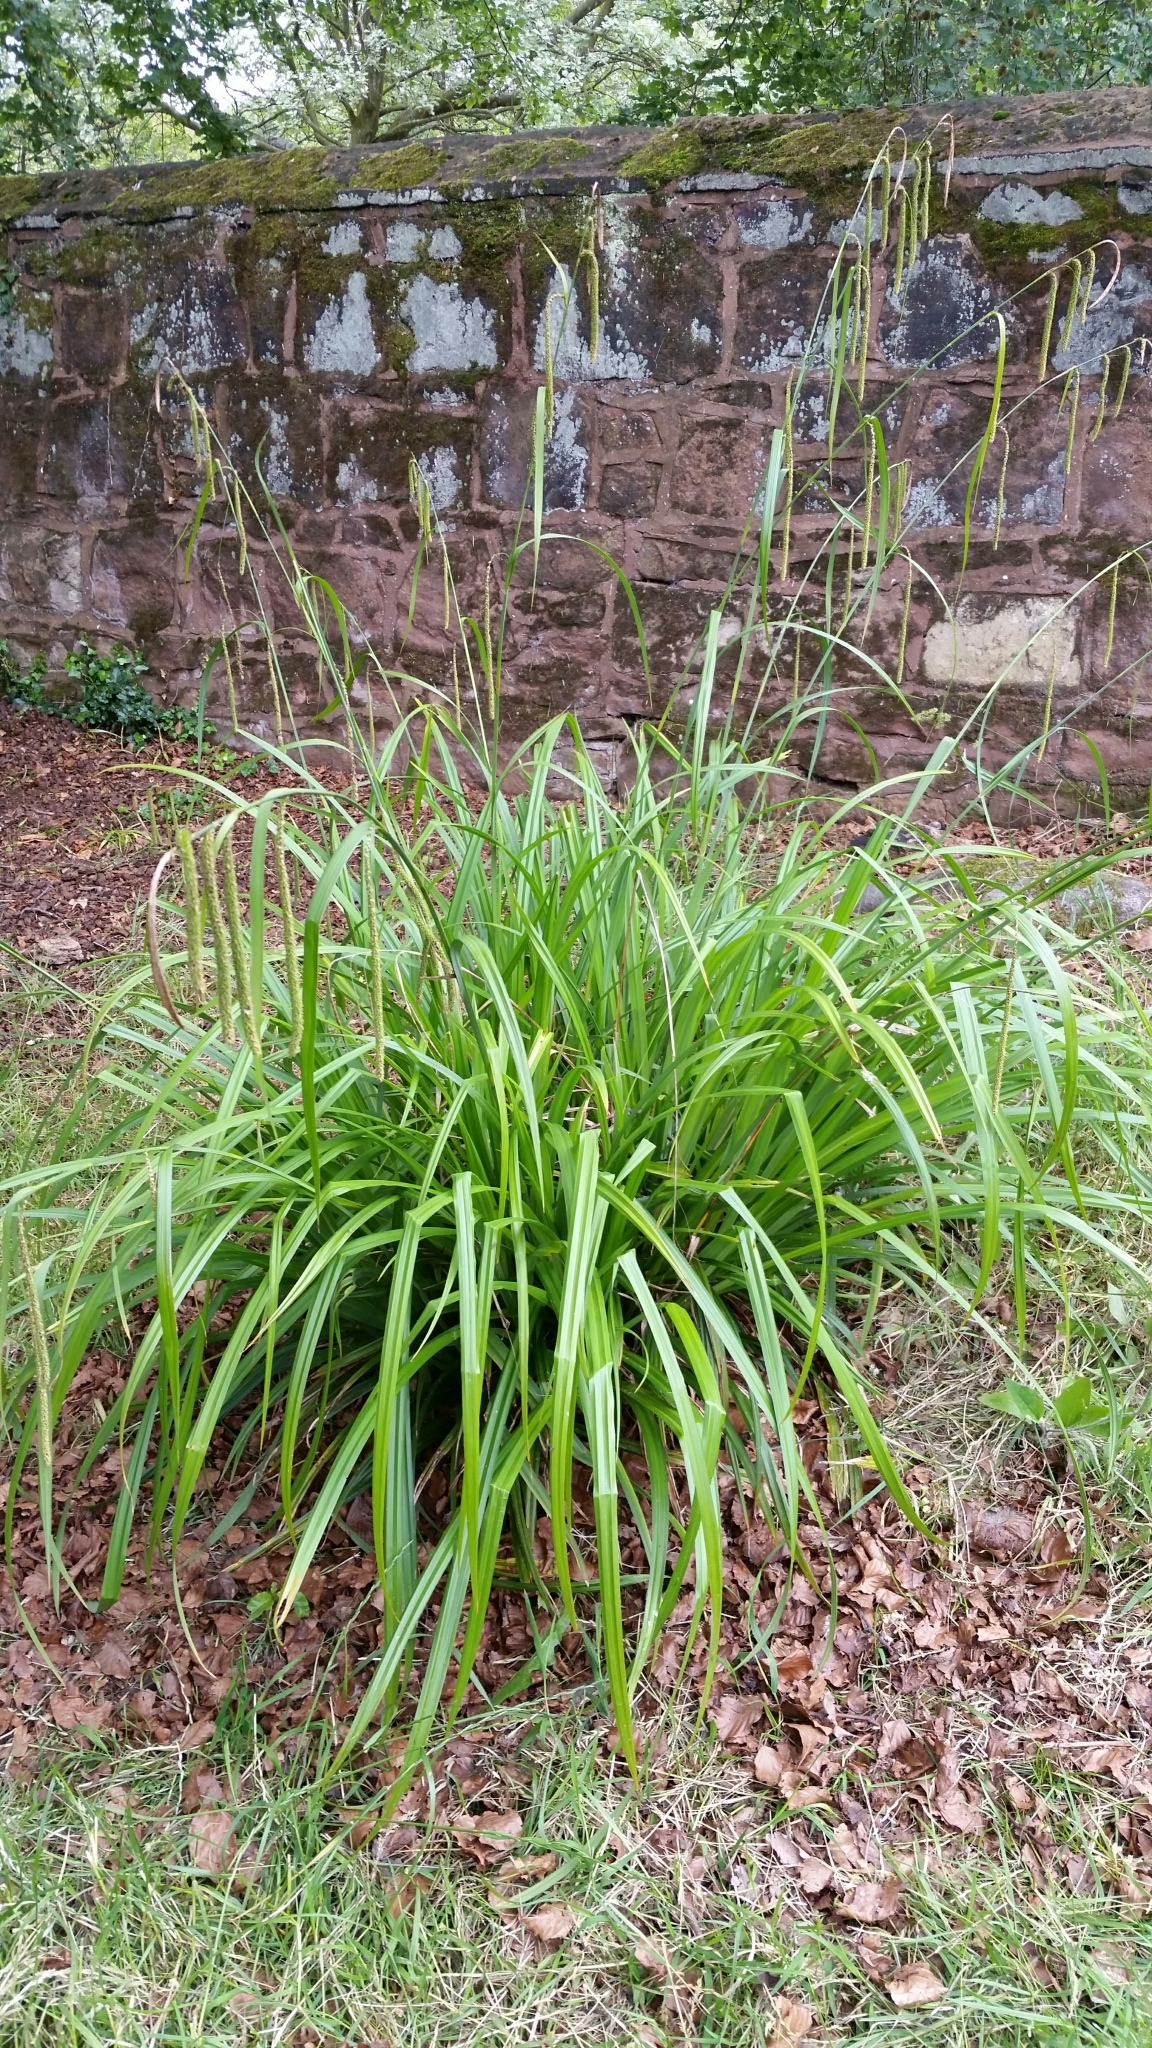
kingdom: Plantae
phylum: Tracheophyta
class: Liliopsida
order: Poales
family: Cyperaceae
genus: Carex
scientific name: Carex pendula
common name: Pendulous sedge
